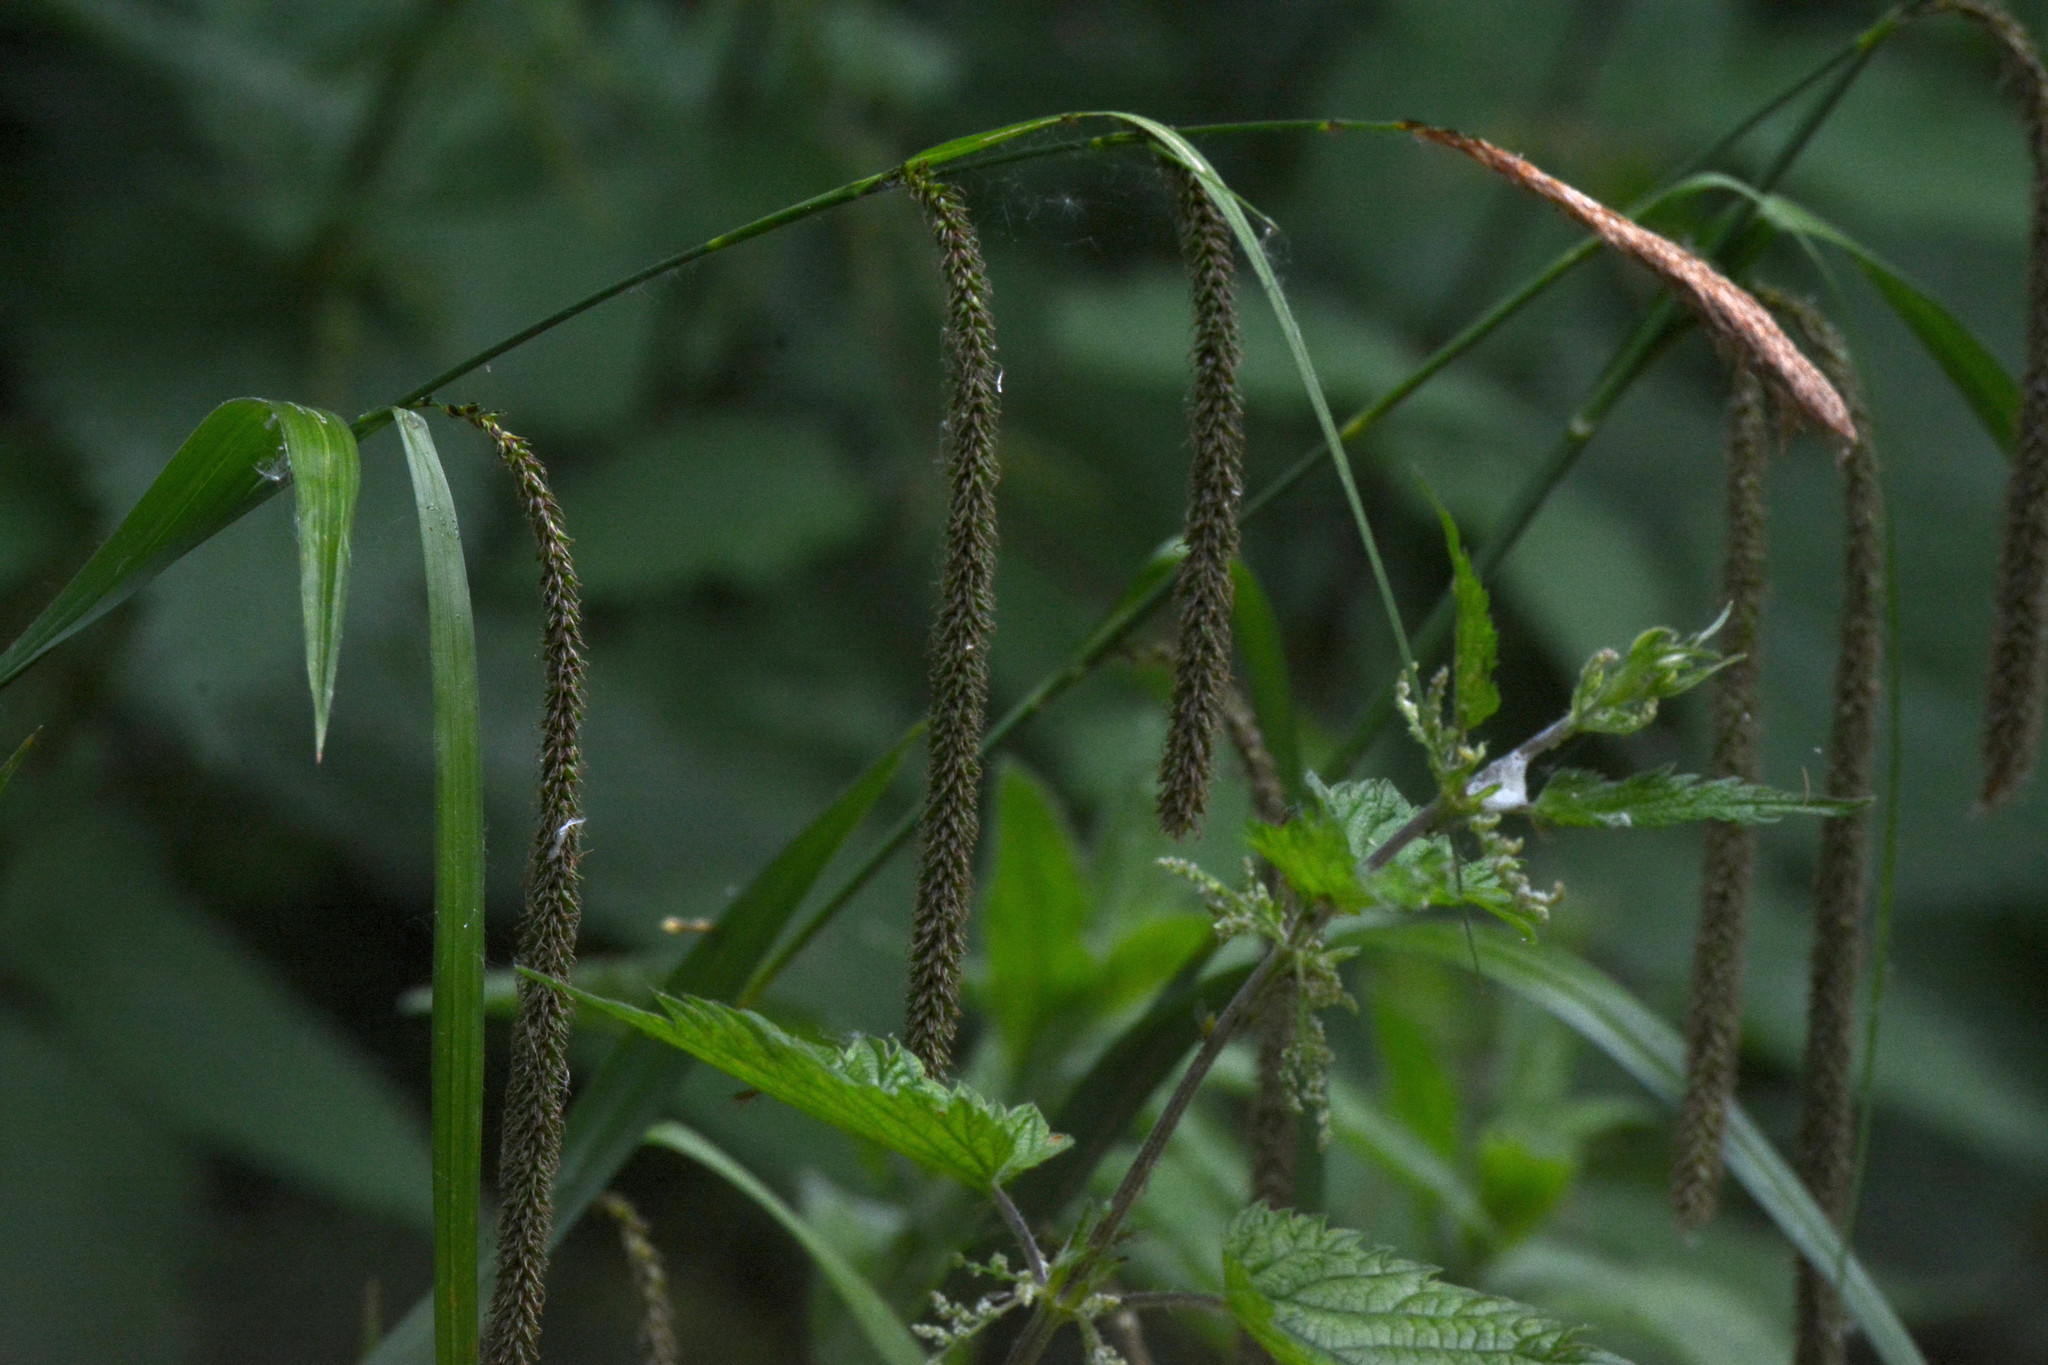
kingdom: Plantae
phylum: Tracheophyta
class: Liliopsida
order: Poales
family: Cyperaceae
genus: Carex
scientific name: Carex pendula
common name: Pendulous sedge
